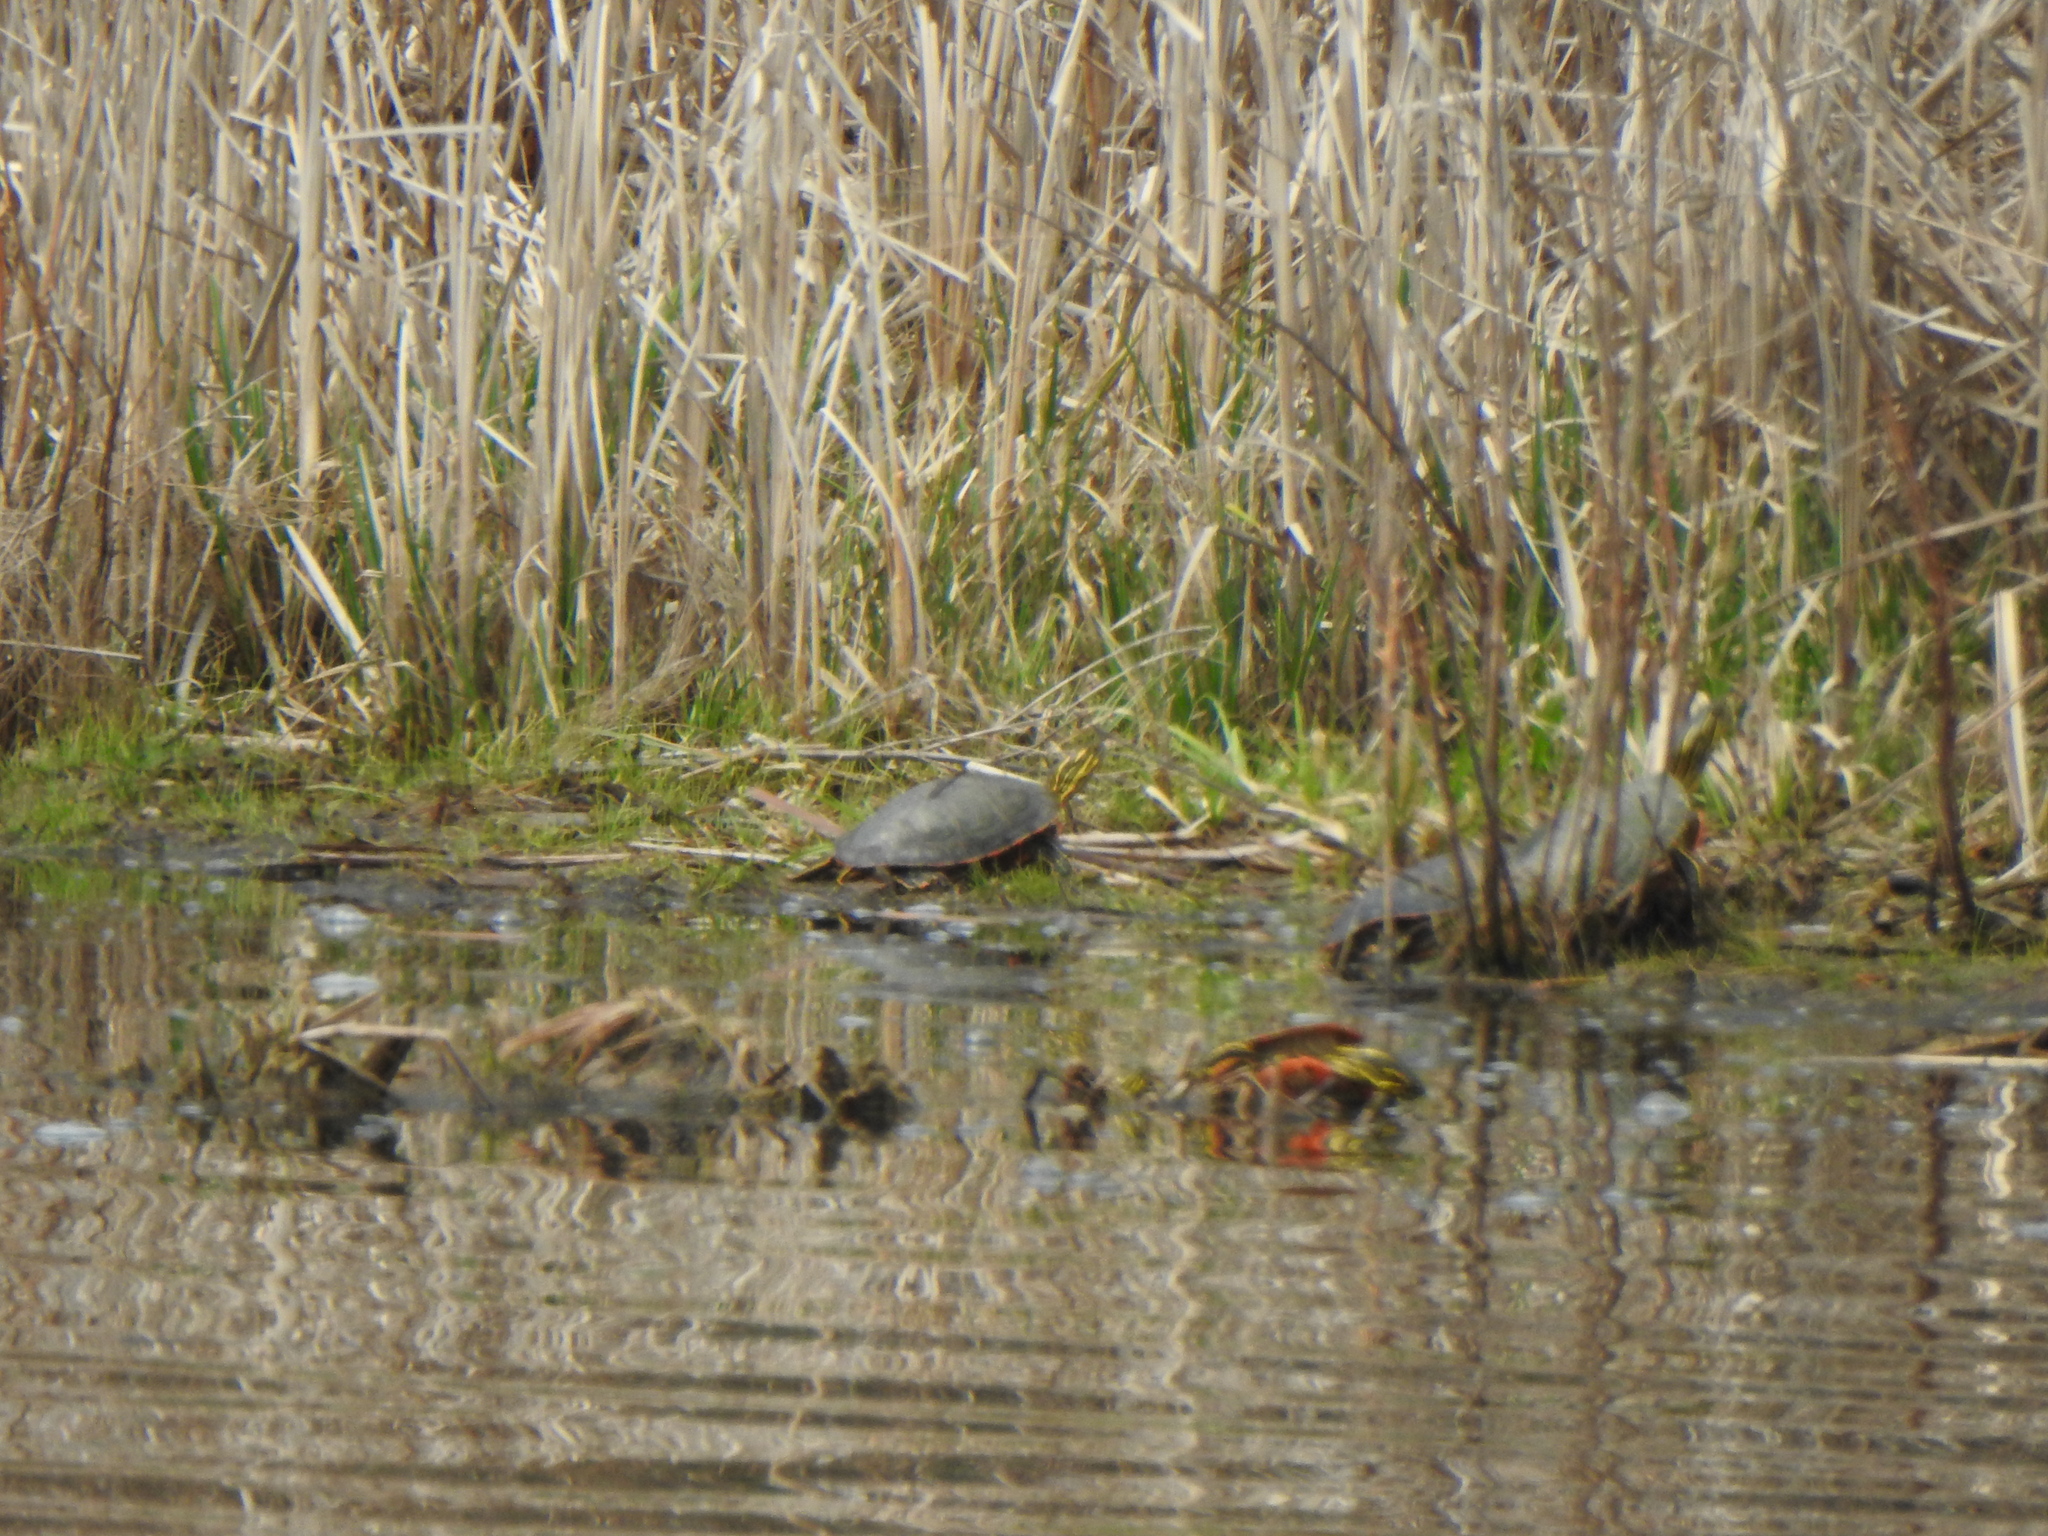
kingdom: Animalia
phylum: Chordata
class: Testudines
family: Emydidae
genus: Chrysemys
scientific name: Chrysemys picta
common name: Painted turtle
